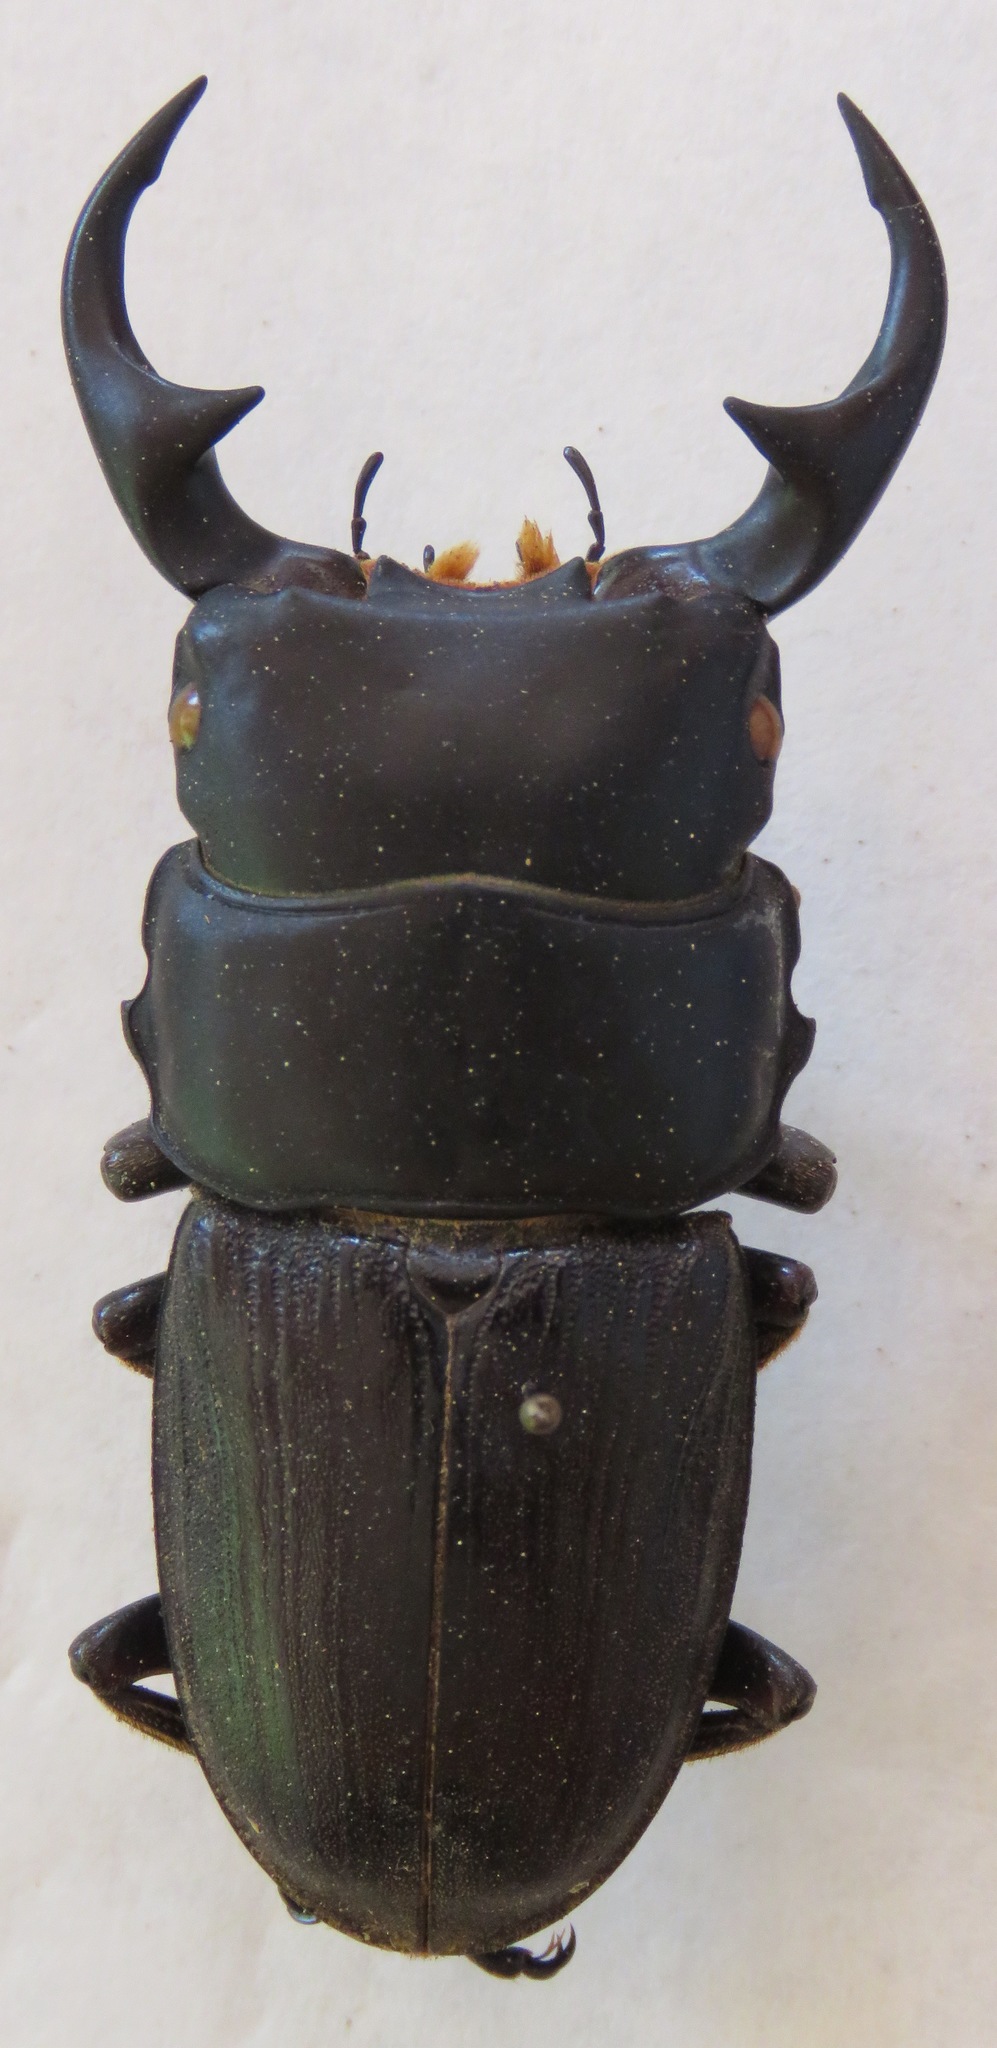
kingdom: Animalia
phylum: Arthropoda
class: Insecta
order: Coleoptera
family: Lucanidae
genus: Dorcus
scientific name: Dorcus ritsemae
